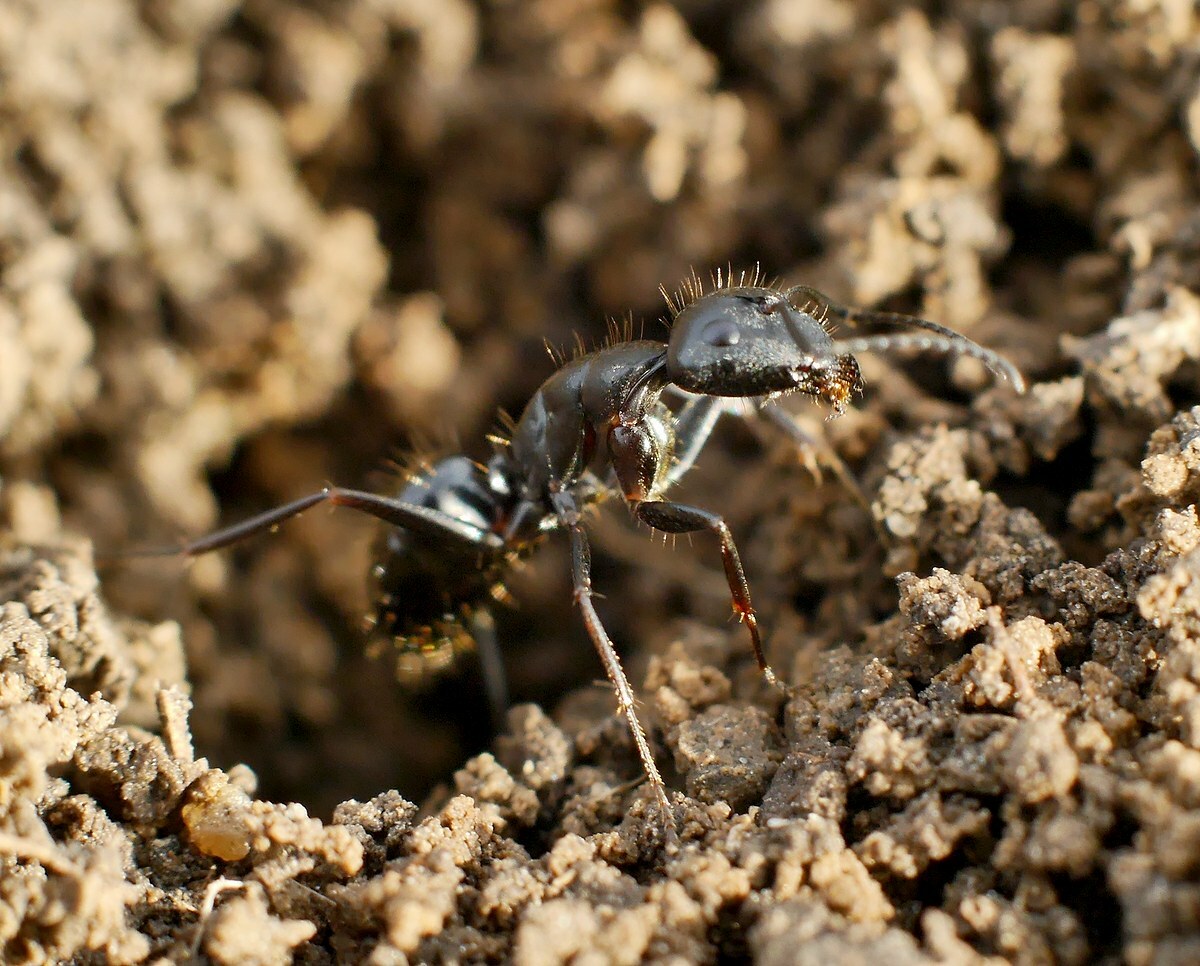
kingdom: Animalia
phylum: Arthropoda
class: Insecta
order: Hymenoptera
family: Formicidae
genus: Camponotus
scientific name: Camponotus aethiops
